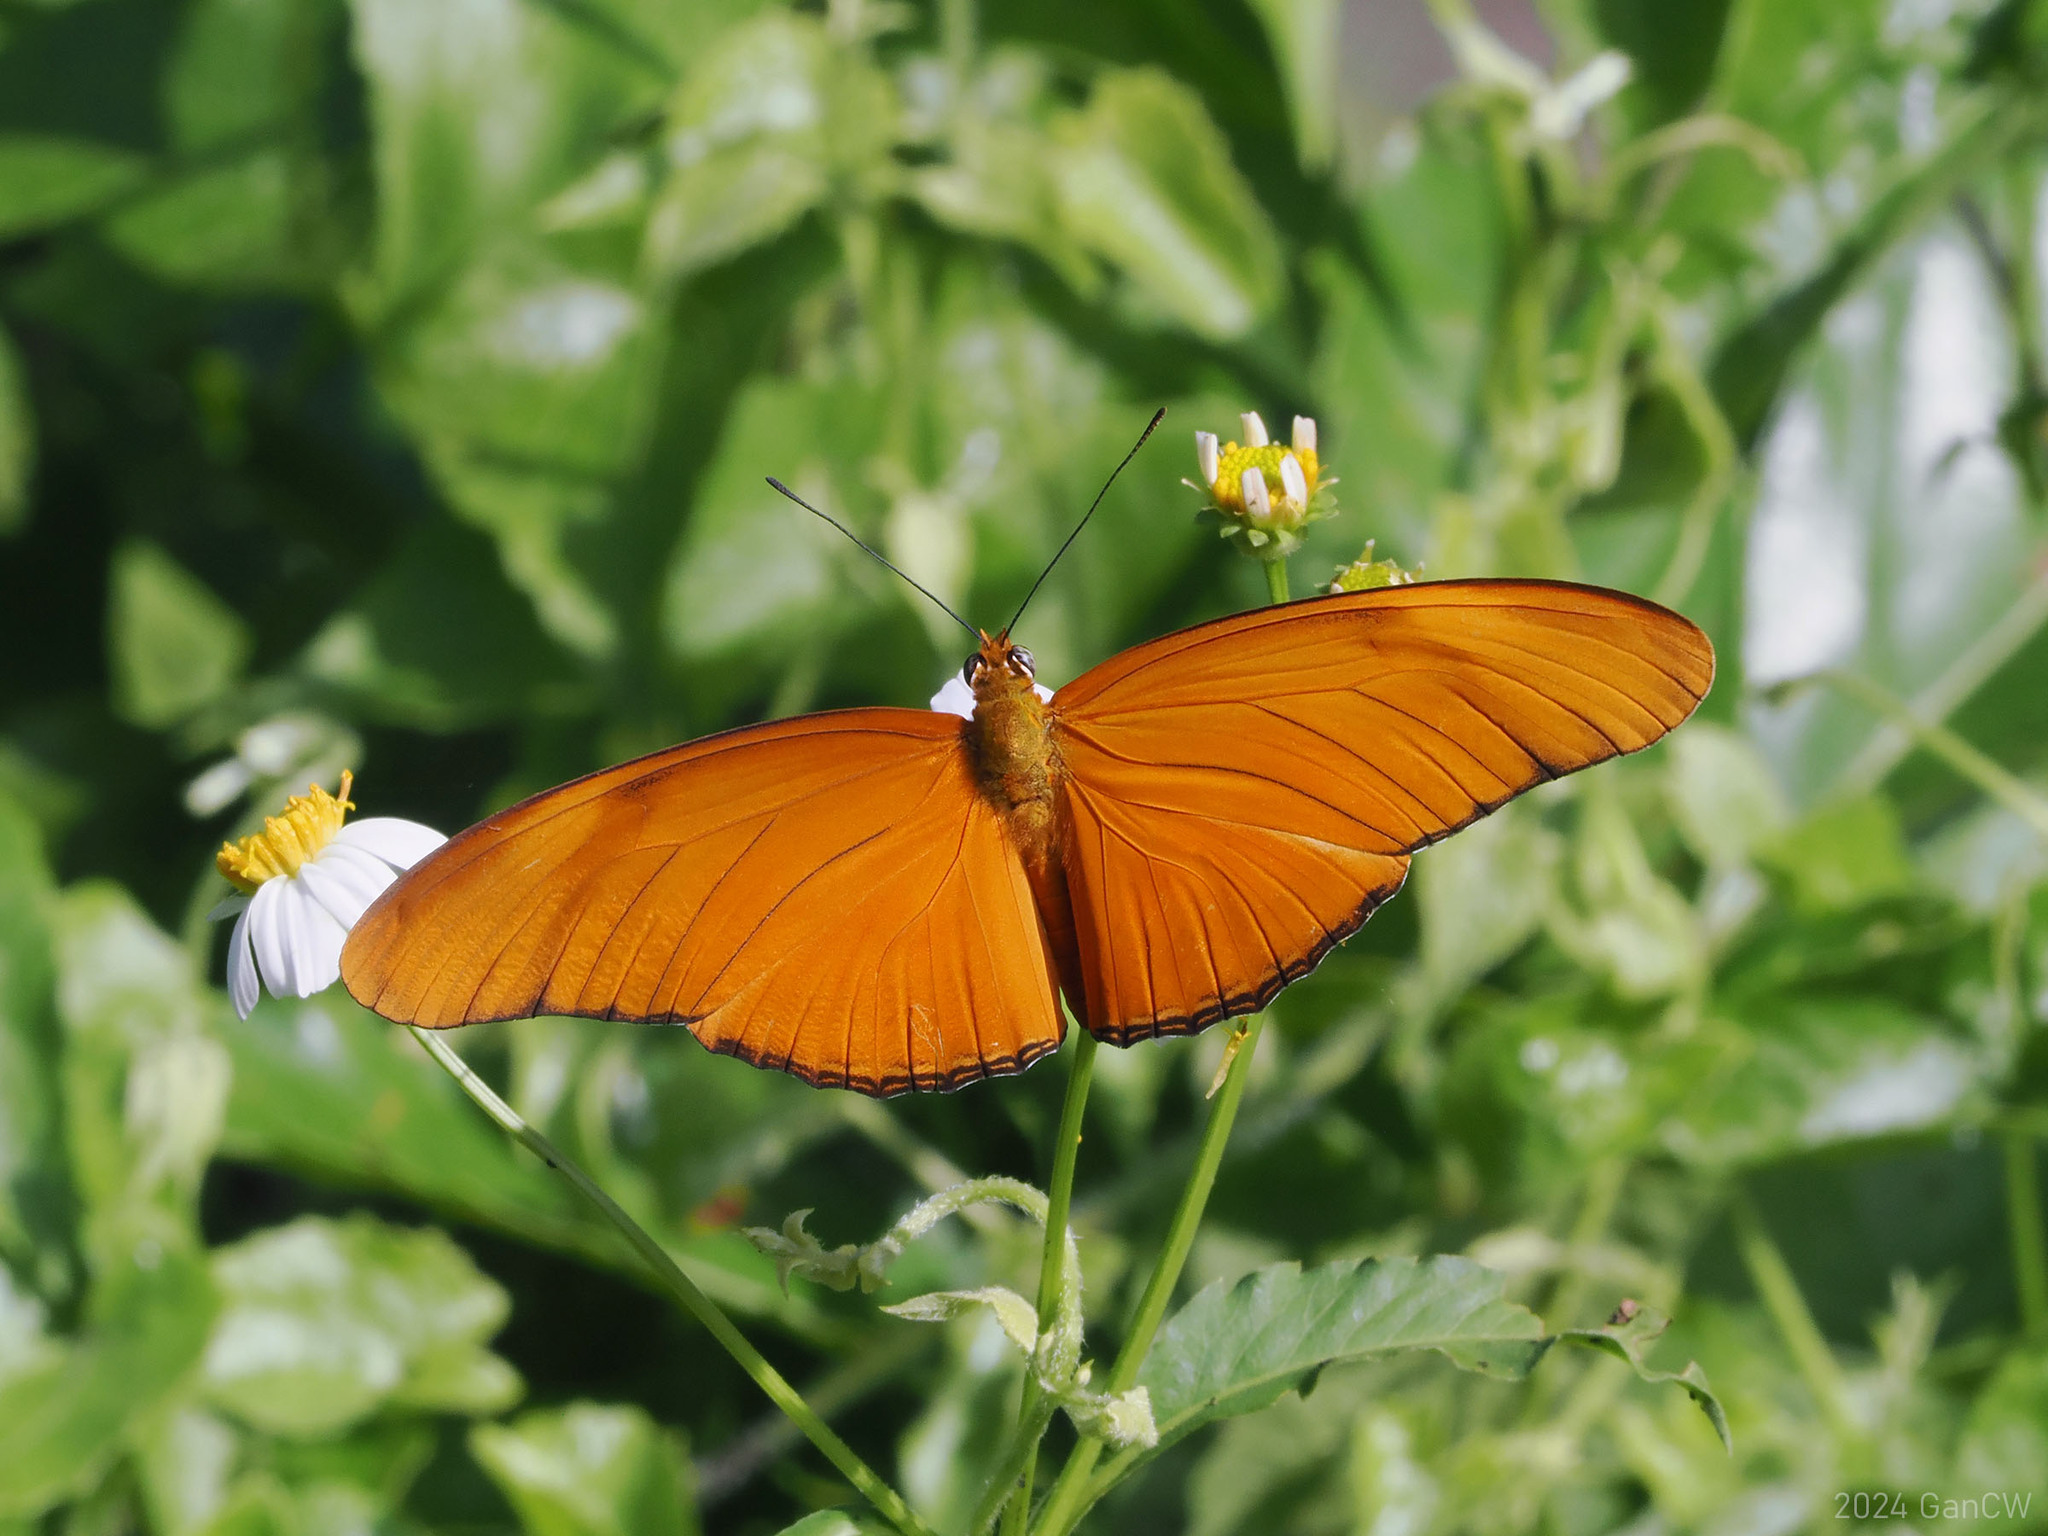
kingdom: Animalia
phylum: Arthropoda
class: Insecta
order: Lepidoptera
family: Nymphalidae
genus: Dryas
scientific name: Dryas iulia
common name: Flambeau
